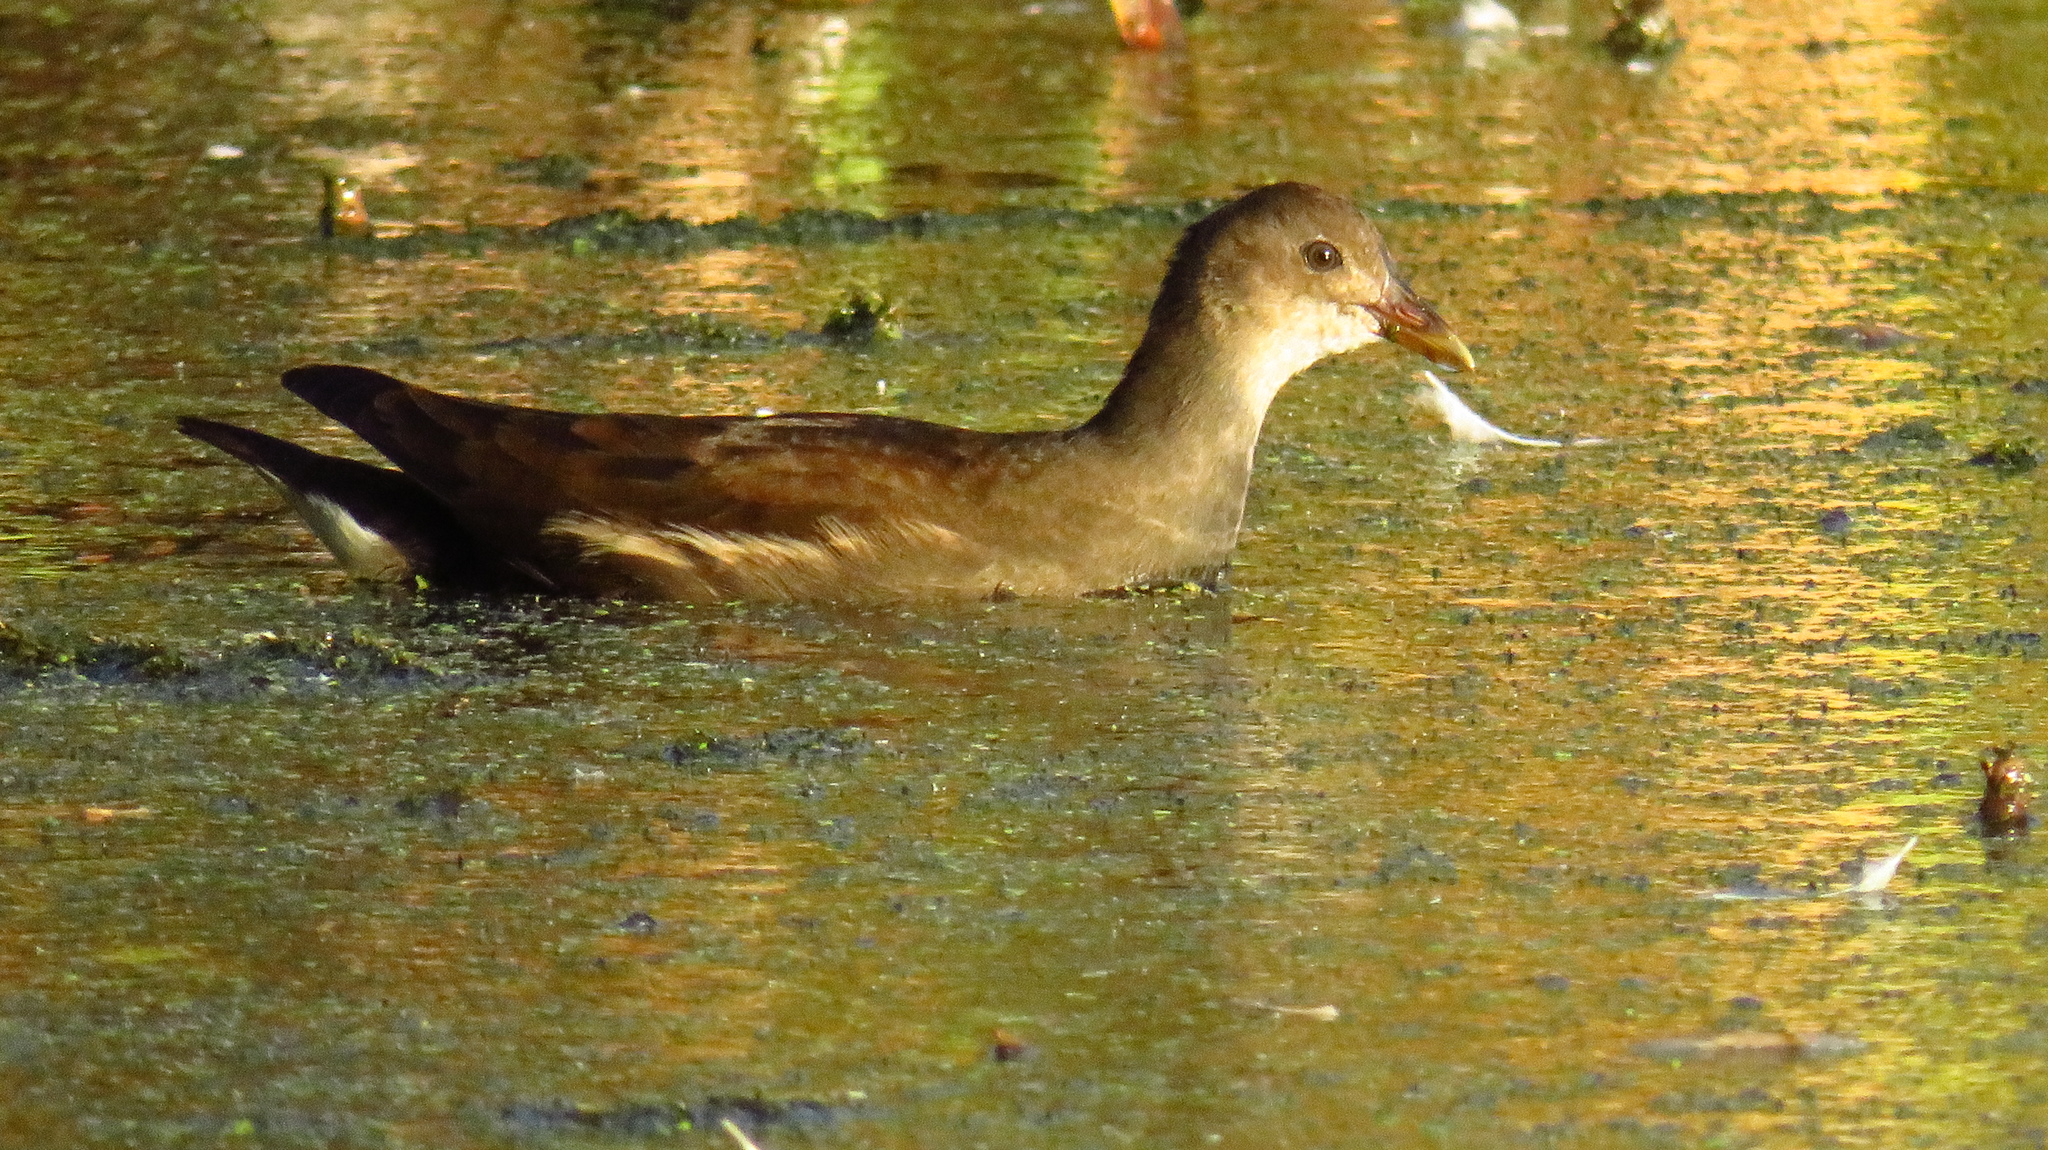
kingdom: Animalia
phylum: Chordata
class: Aves
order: Gruiformes
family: Rallidae
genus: Gallinula
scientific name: Gallinula chloropus
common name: Common moorhen
